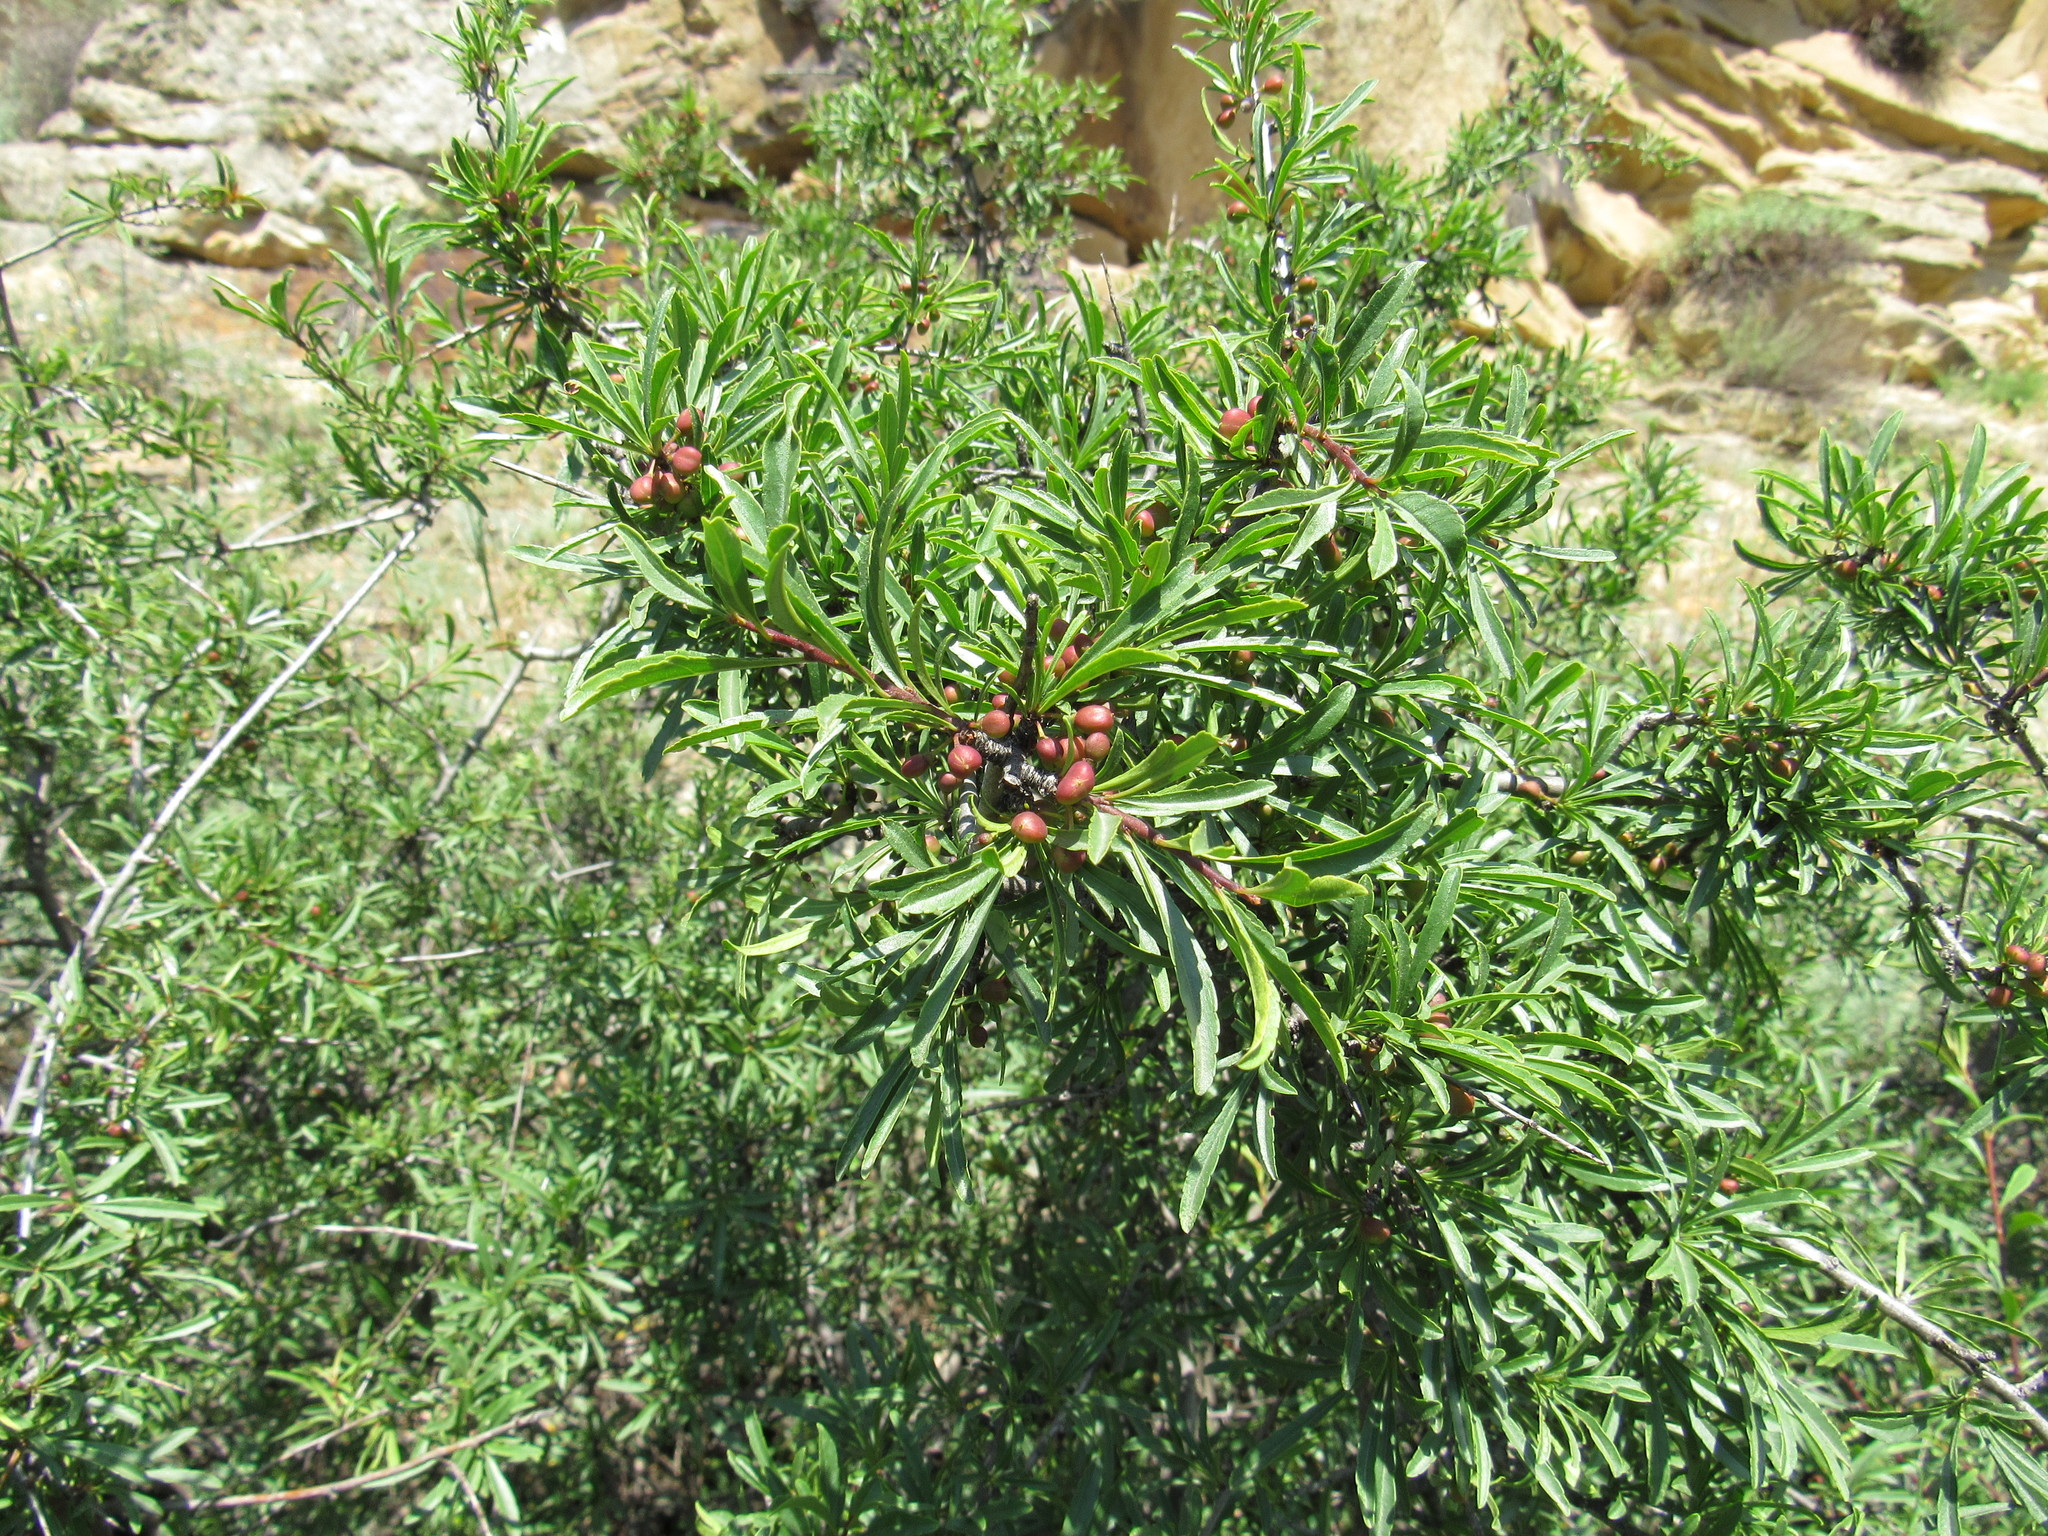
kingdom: Plantae
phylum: Tracheophyta
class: Magnoliopsida
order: Rosales
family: Rhamnaceae
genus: Rhamnus
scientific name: Rhamnus erythroxyloides
